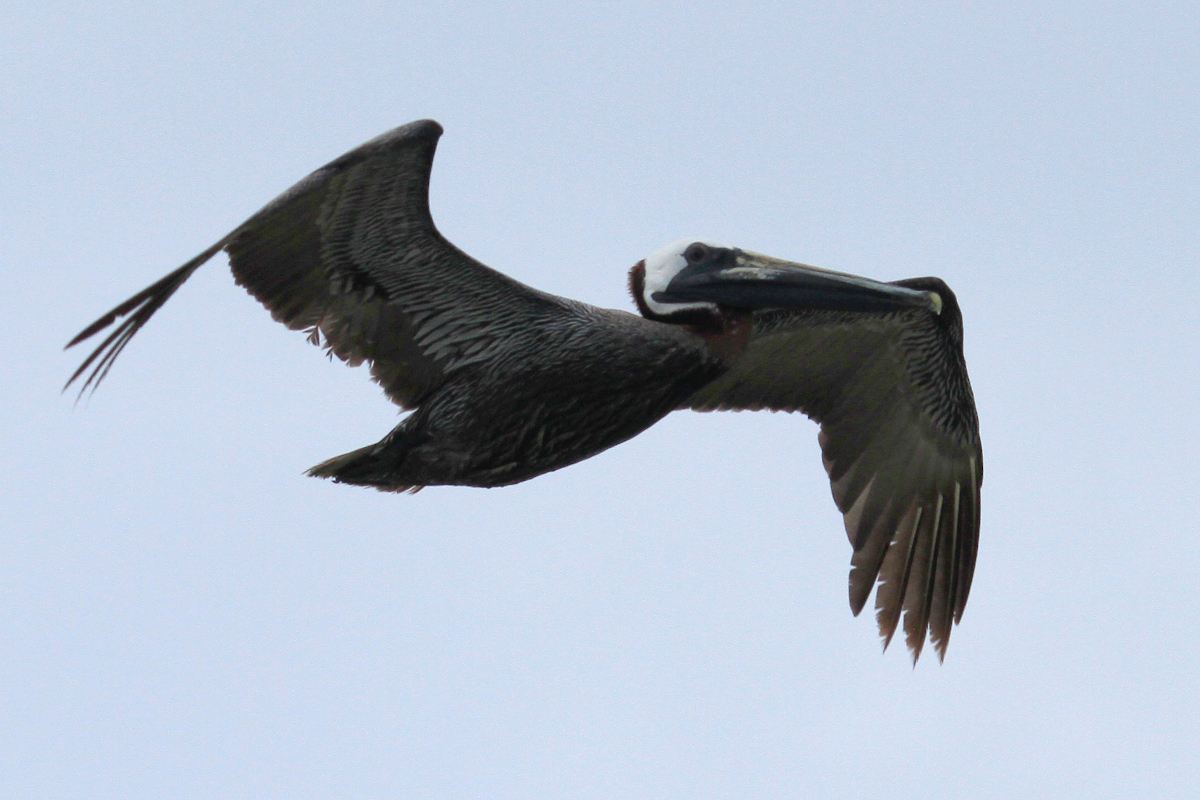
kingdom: Animalia
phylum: Chordata
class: Aves
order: Pelecaniformes
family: Pelecanidae
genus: Pelecanus
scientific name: Pelecanus occidentalis
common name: Brown pelican
